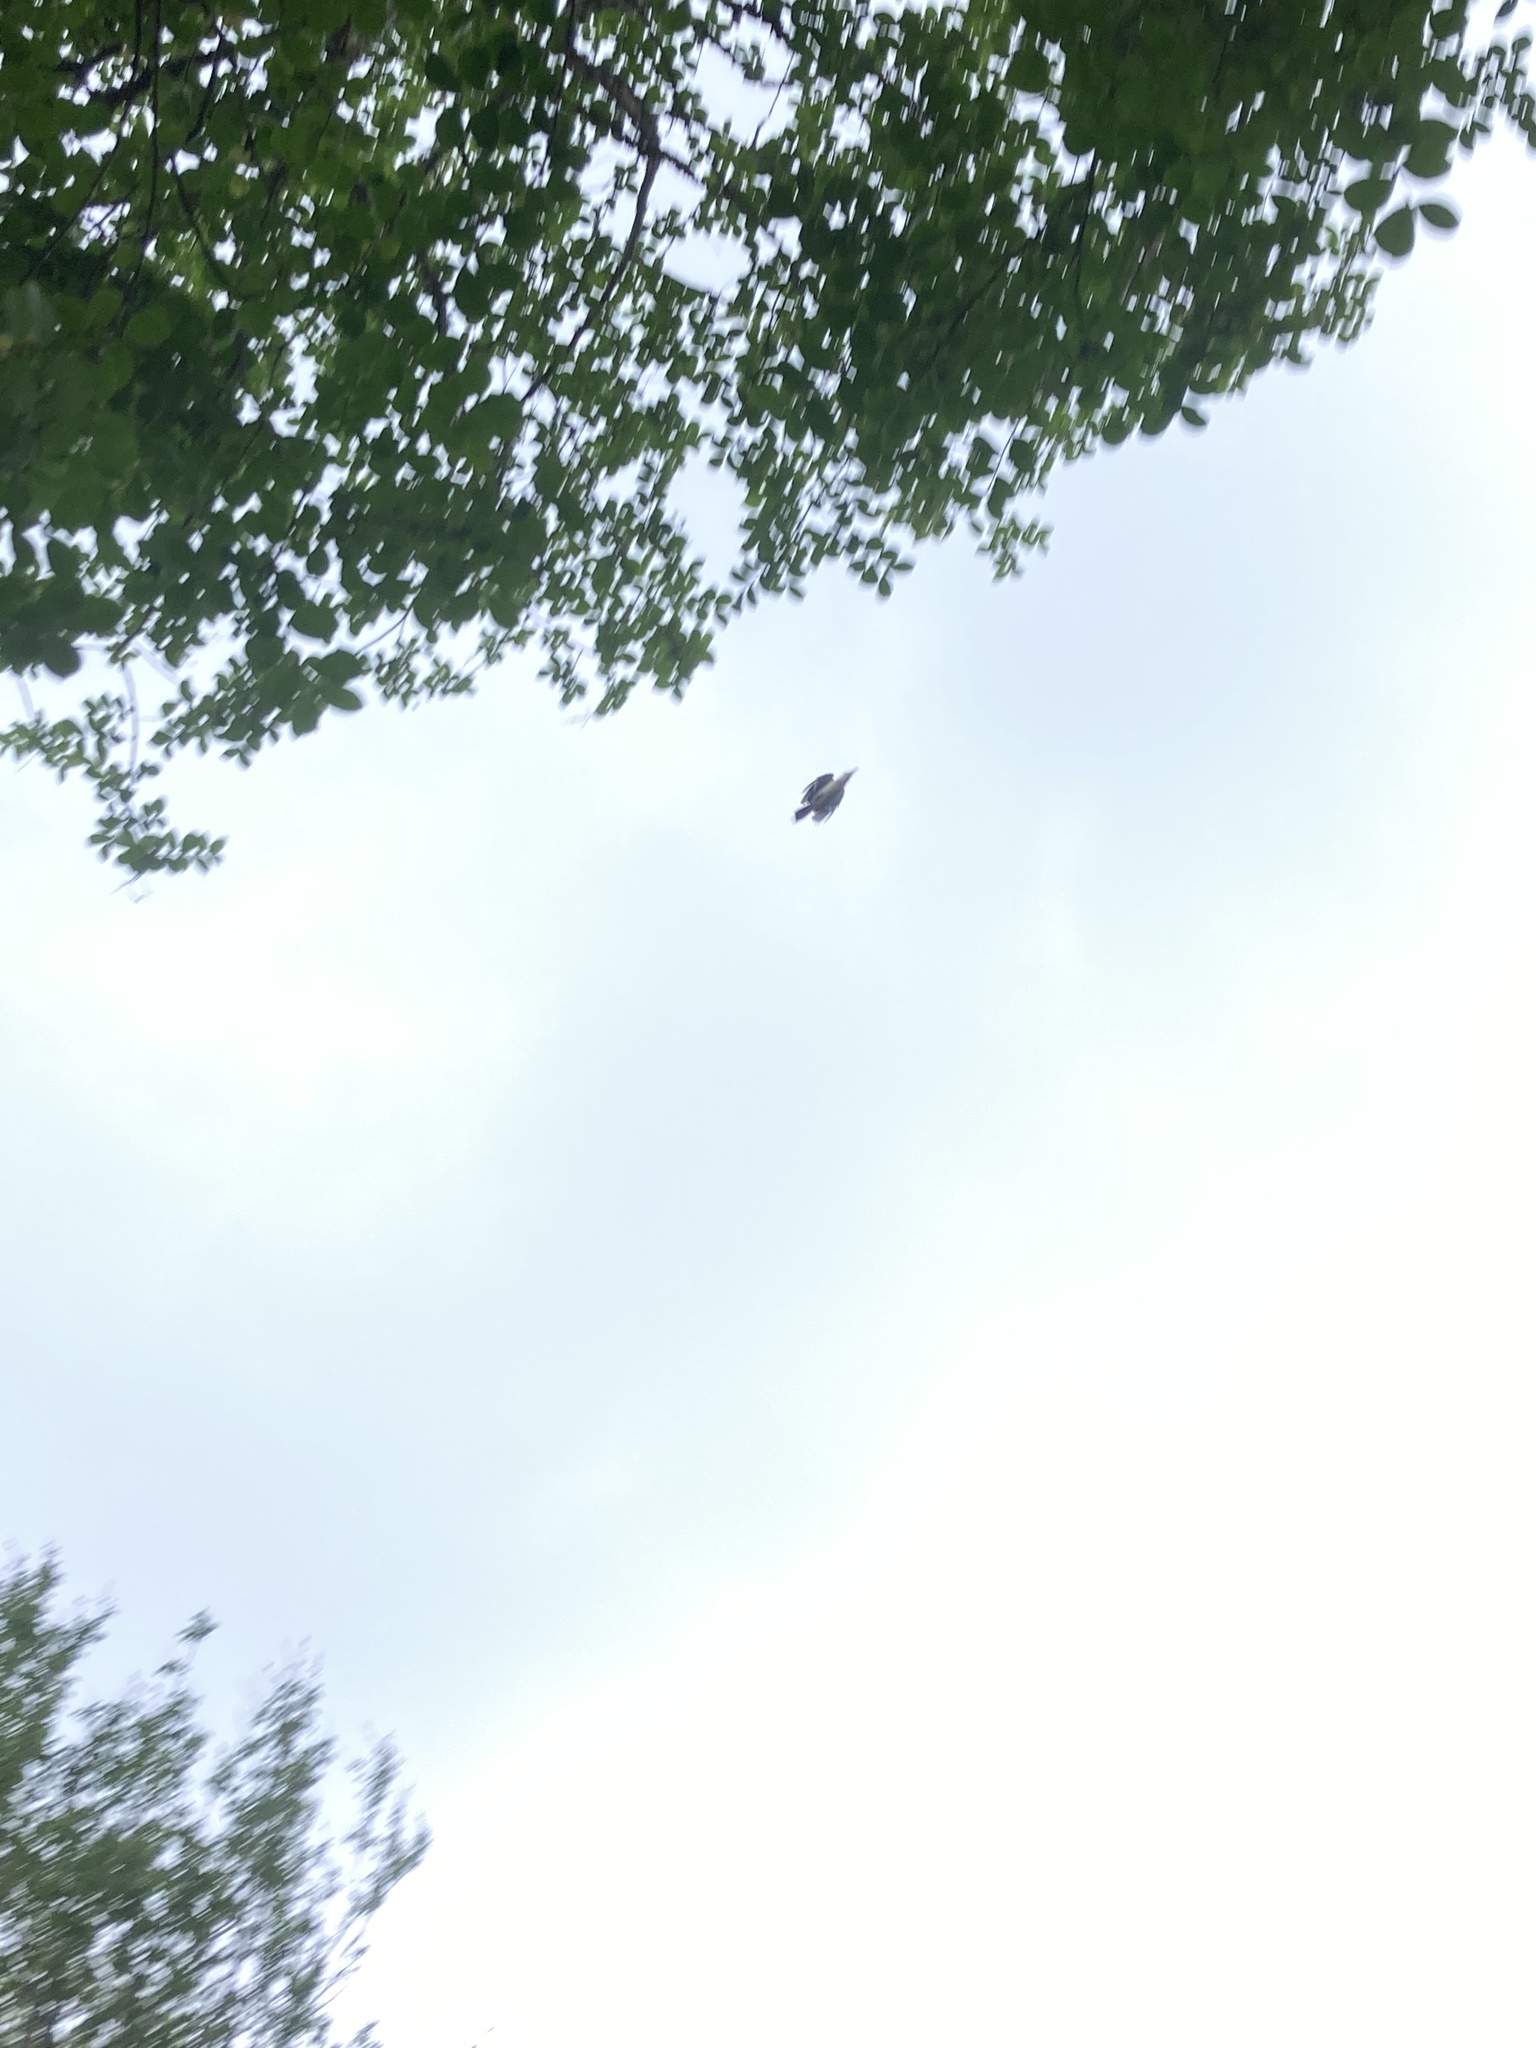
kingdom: Animalia
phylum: Chordata
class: Aves
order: Passeriformes
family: Mimidae
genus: Mimus
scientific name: Mimus polyglottos
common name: Northern mockingbird
